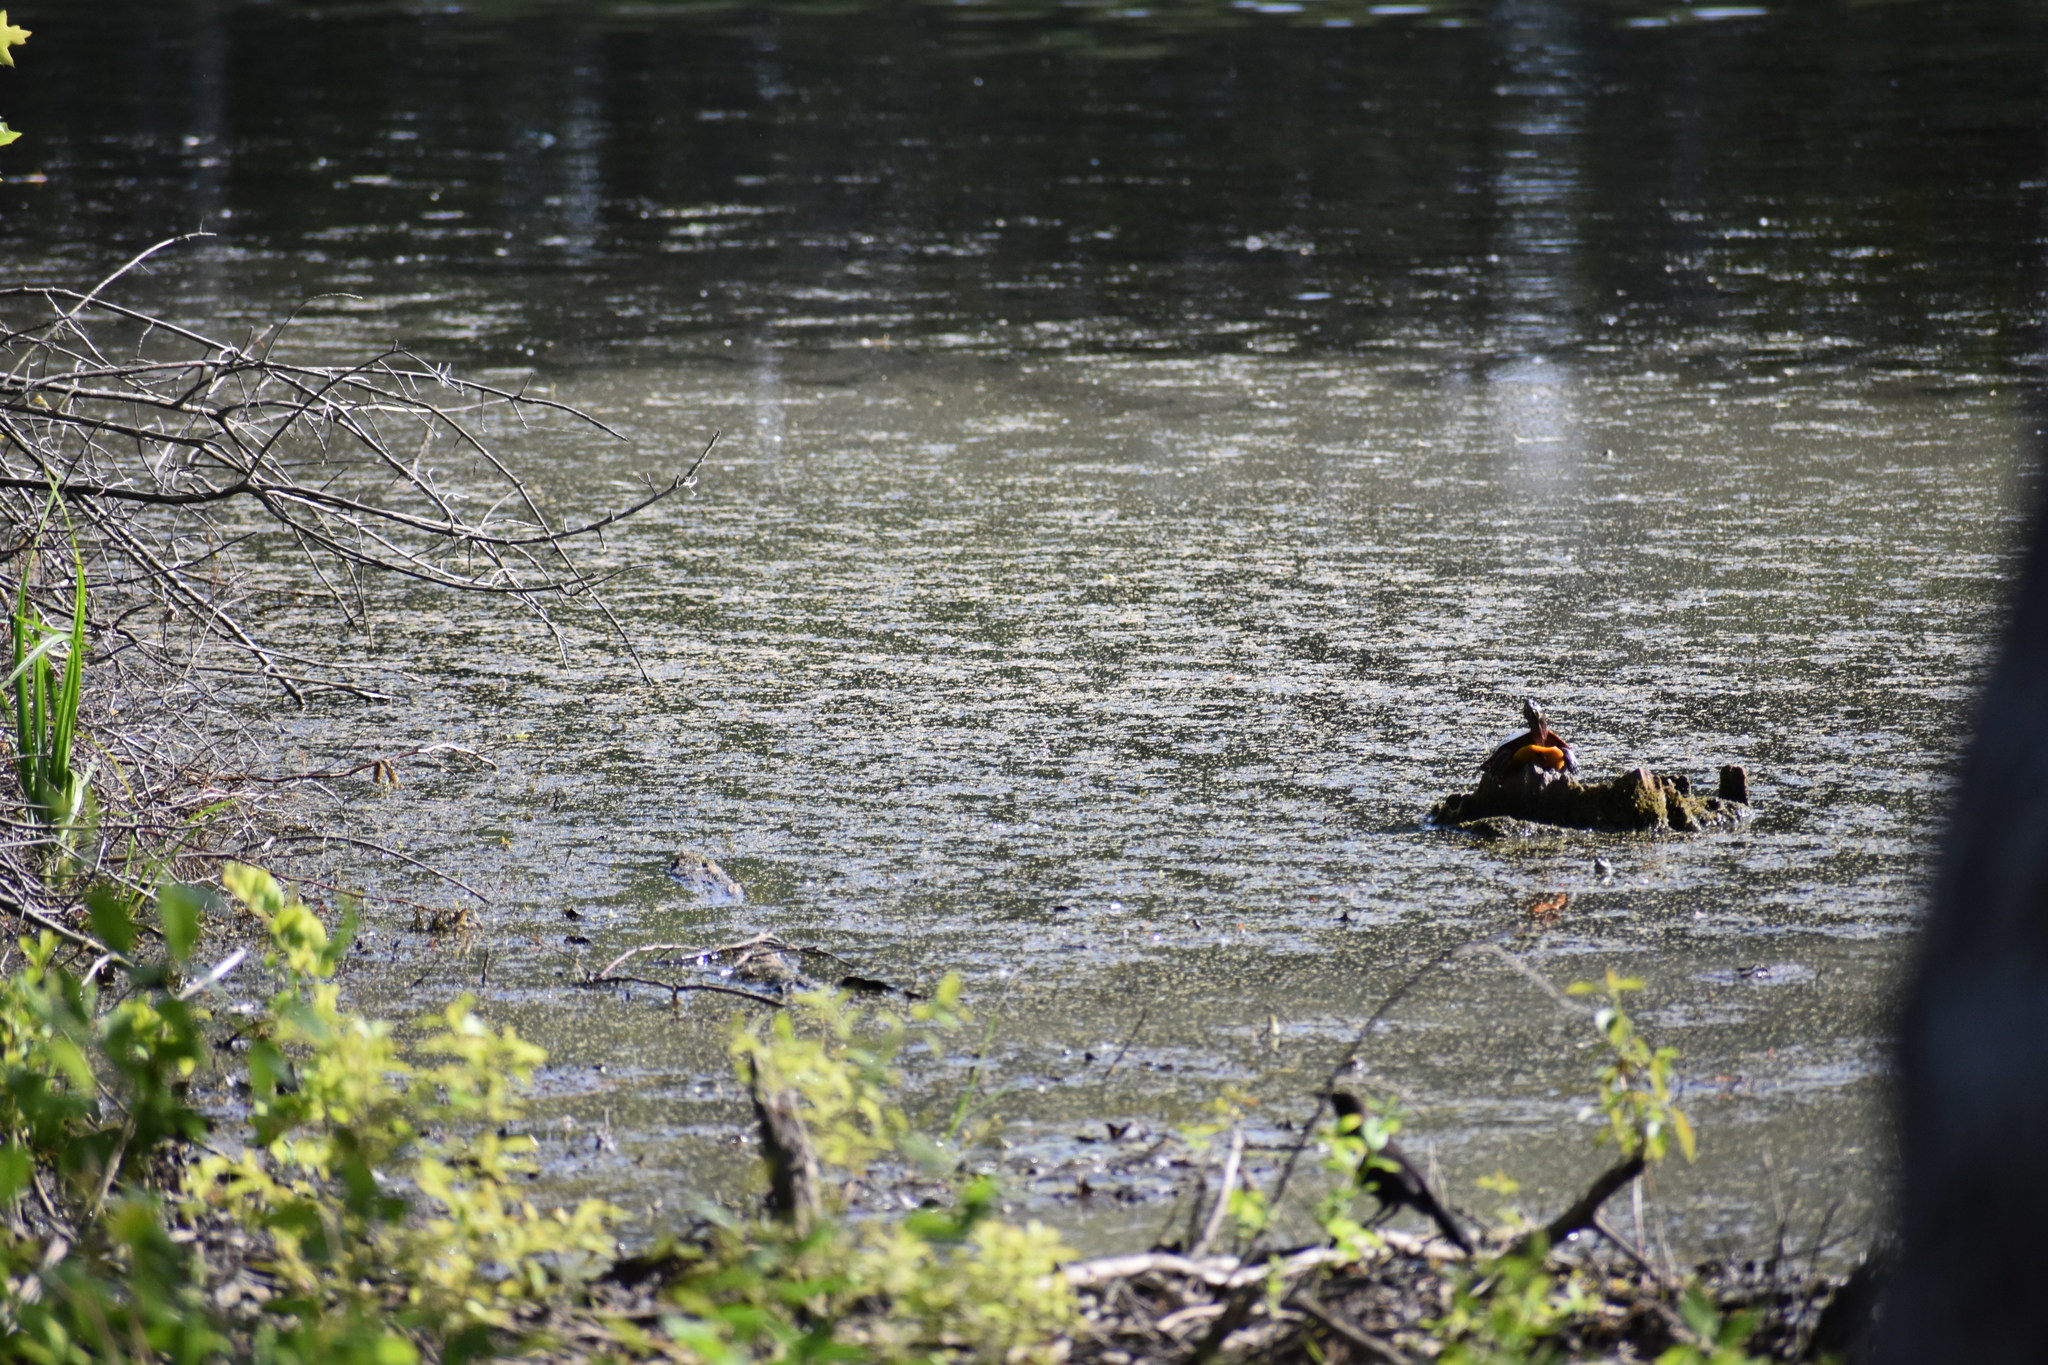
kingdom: Animalia
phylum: Chordata
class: Testudines
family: Emydidae
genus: Chrysemys
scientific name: Chrysemys picta
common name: Painted turtle
